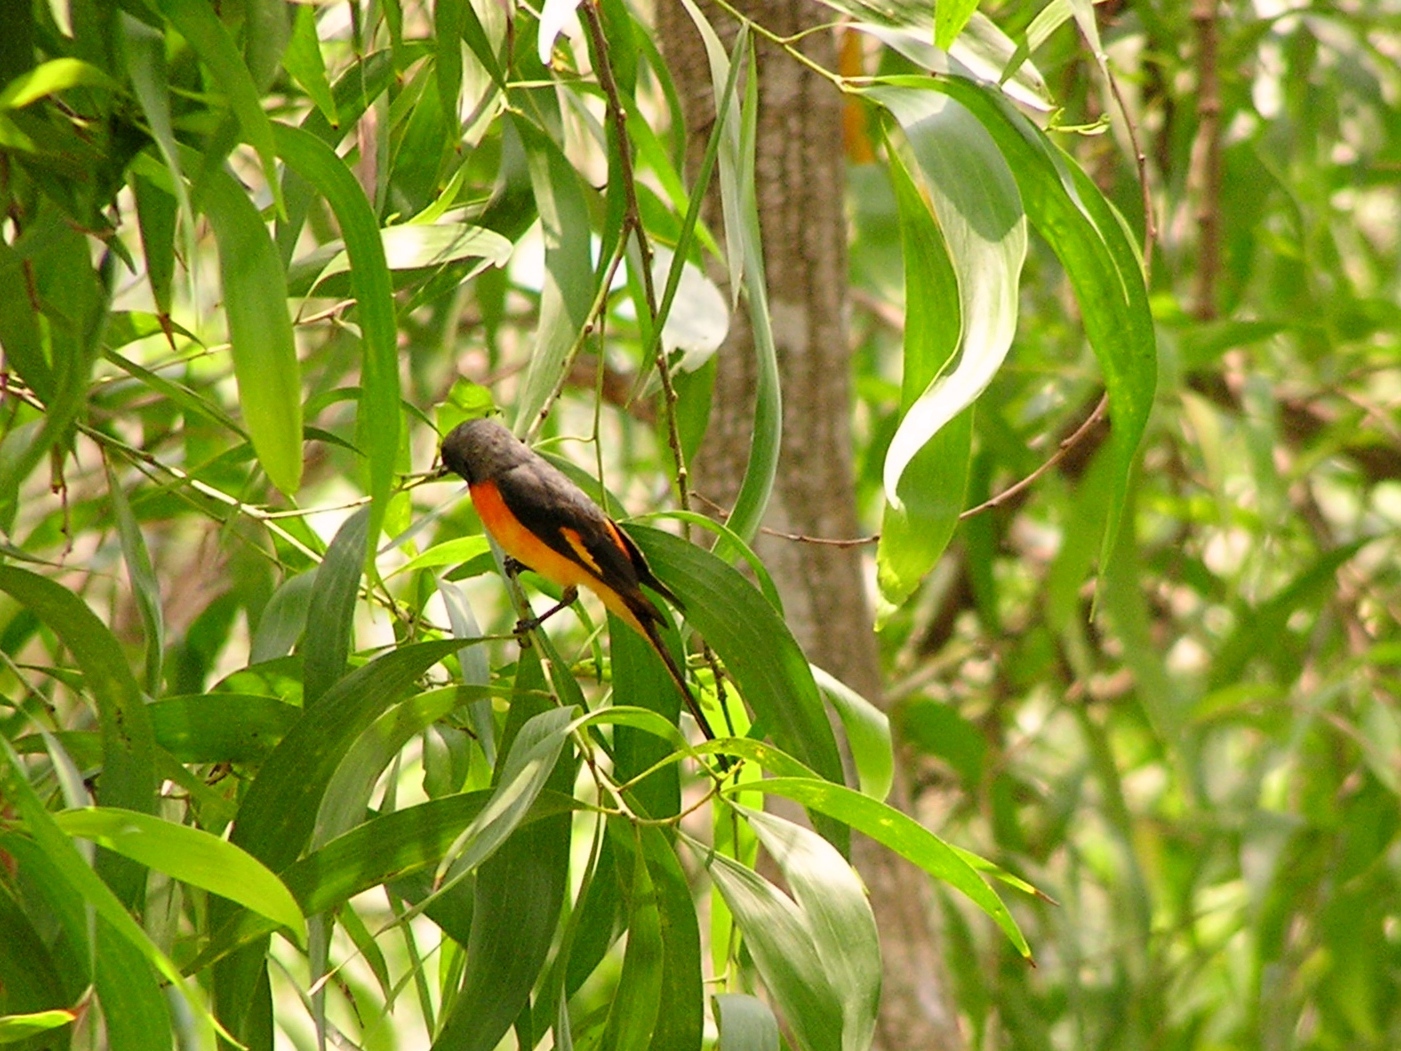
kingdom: Animalia
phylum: Chordata
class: Aves
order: Passeriformes
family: Campephagidae
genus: Pericrocotus
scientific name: Pericrocotus cinnamomeus
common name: Small minivet
